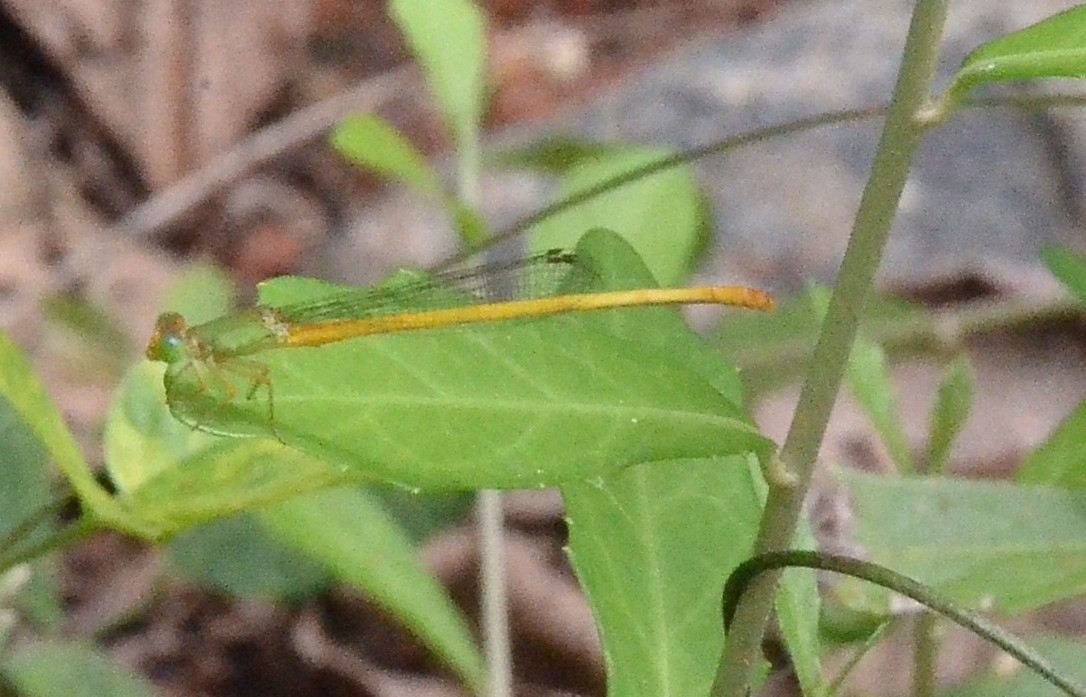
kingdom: Animalia
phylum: Arthropoda
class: Insecta
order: Odonata
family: Coenagrionidae
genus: Ceriagrion
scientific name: Ceriagrion coromandelianum
